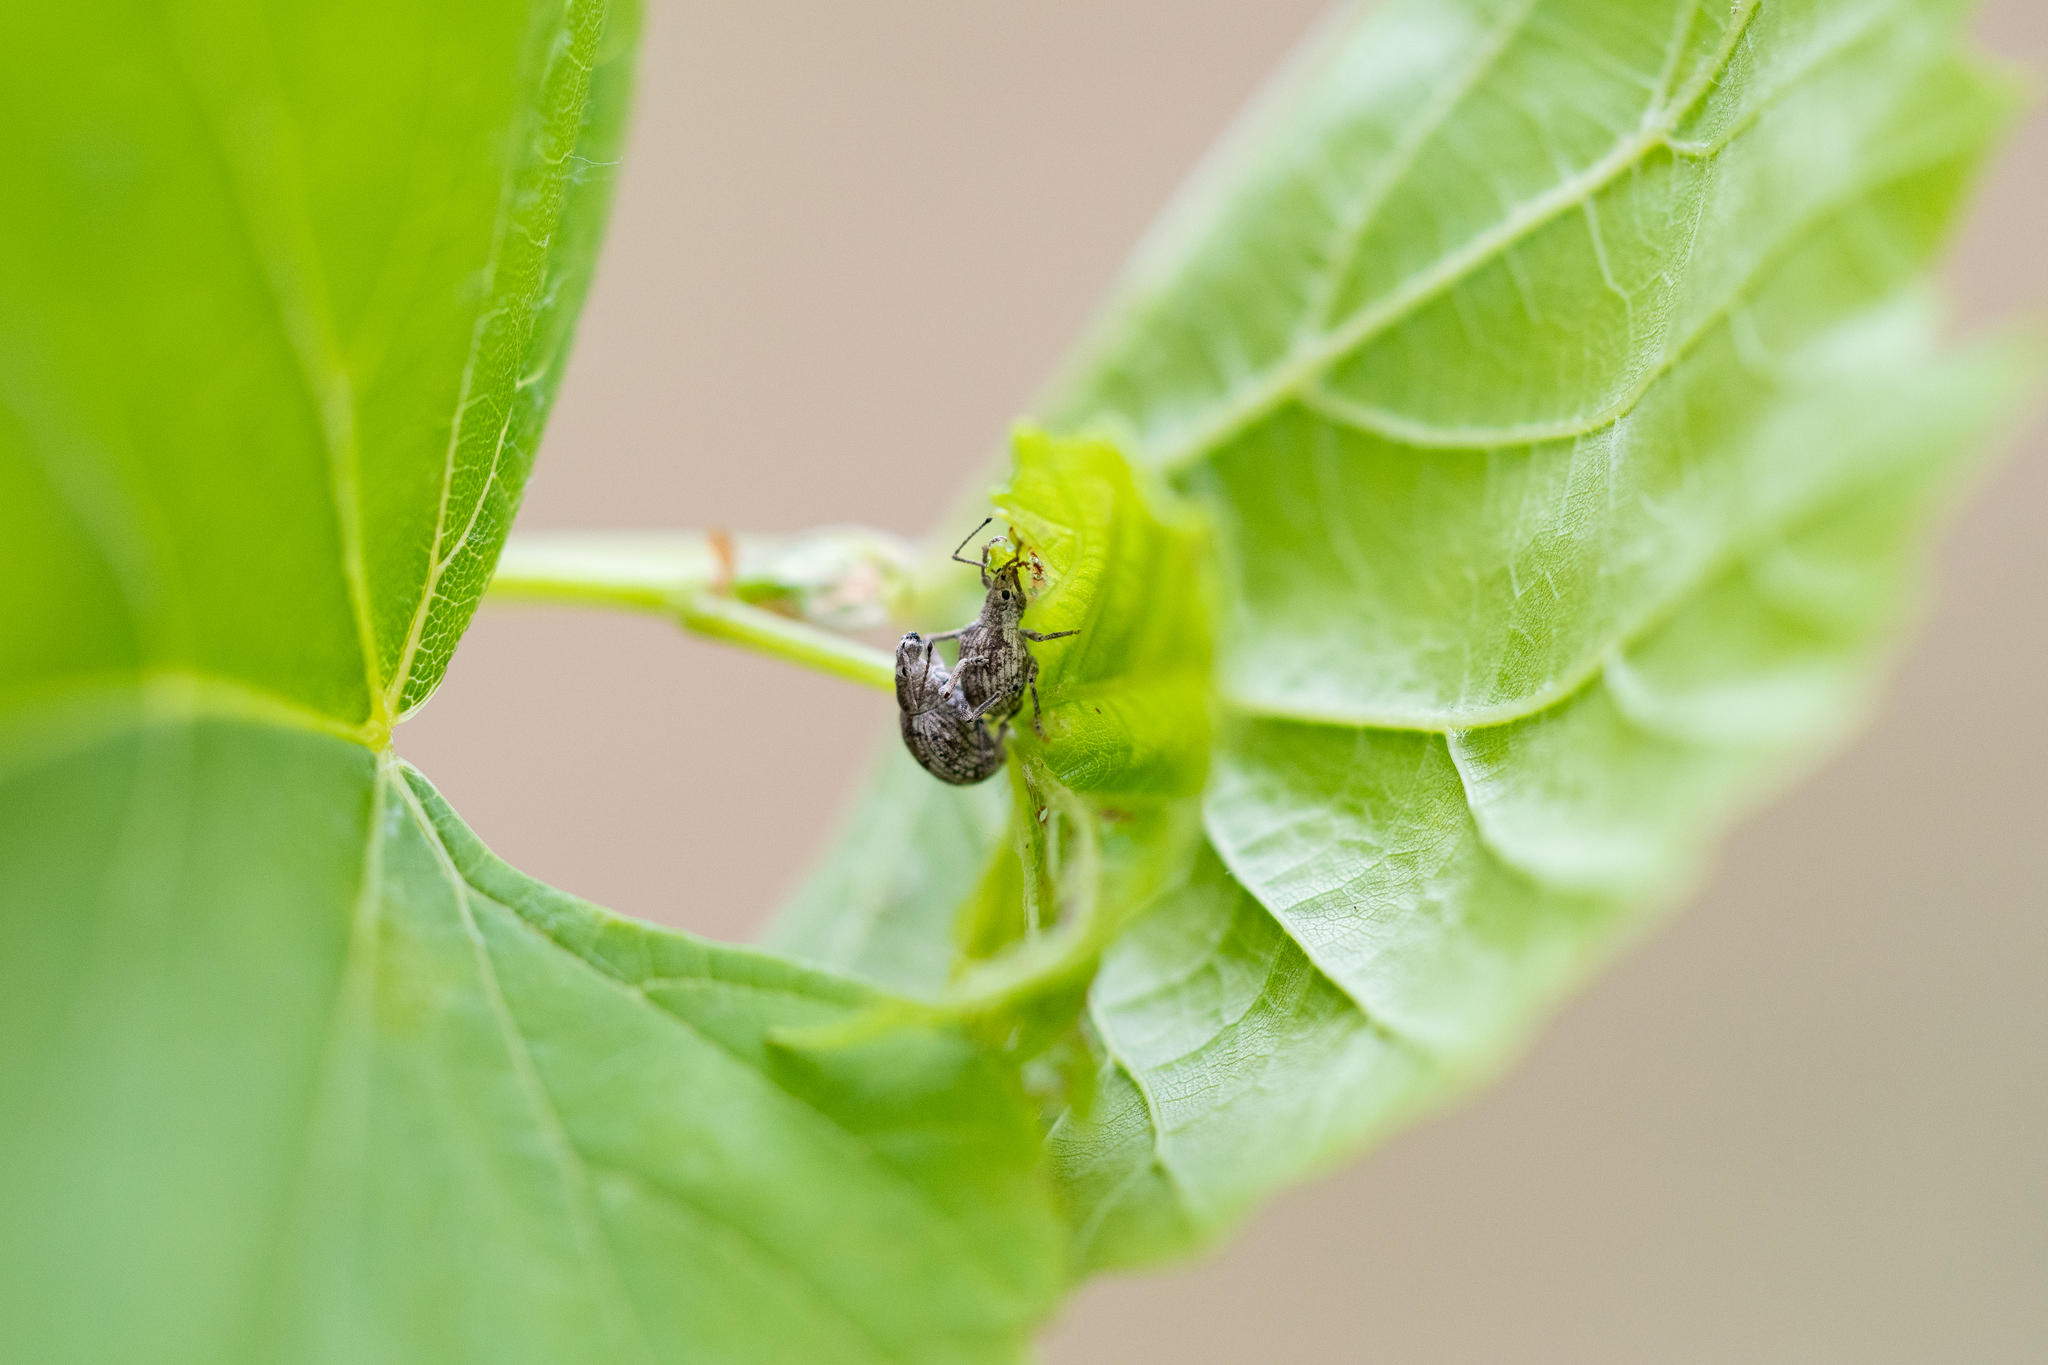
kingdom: Animalia
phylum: Arthropoda
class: Insecta
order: Coleoptera
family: Curculionidae
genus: Ellimenistes
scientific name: Ellimenistes laesicollis
